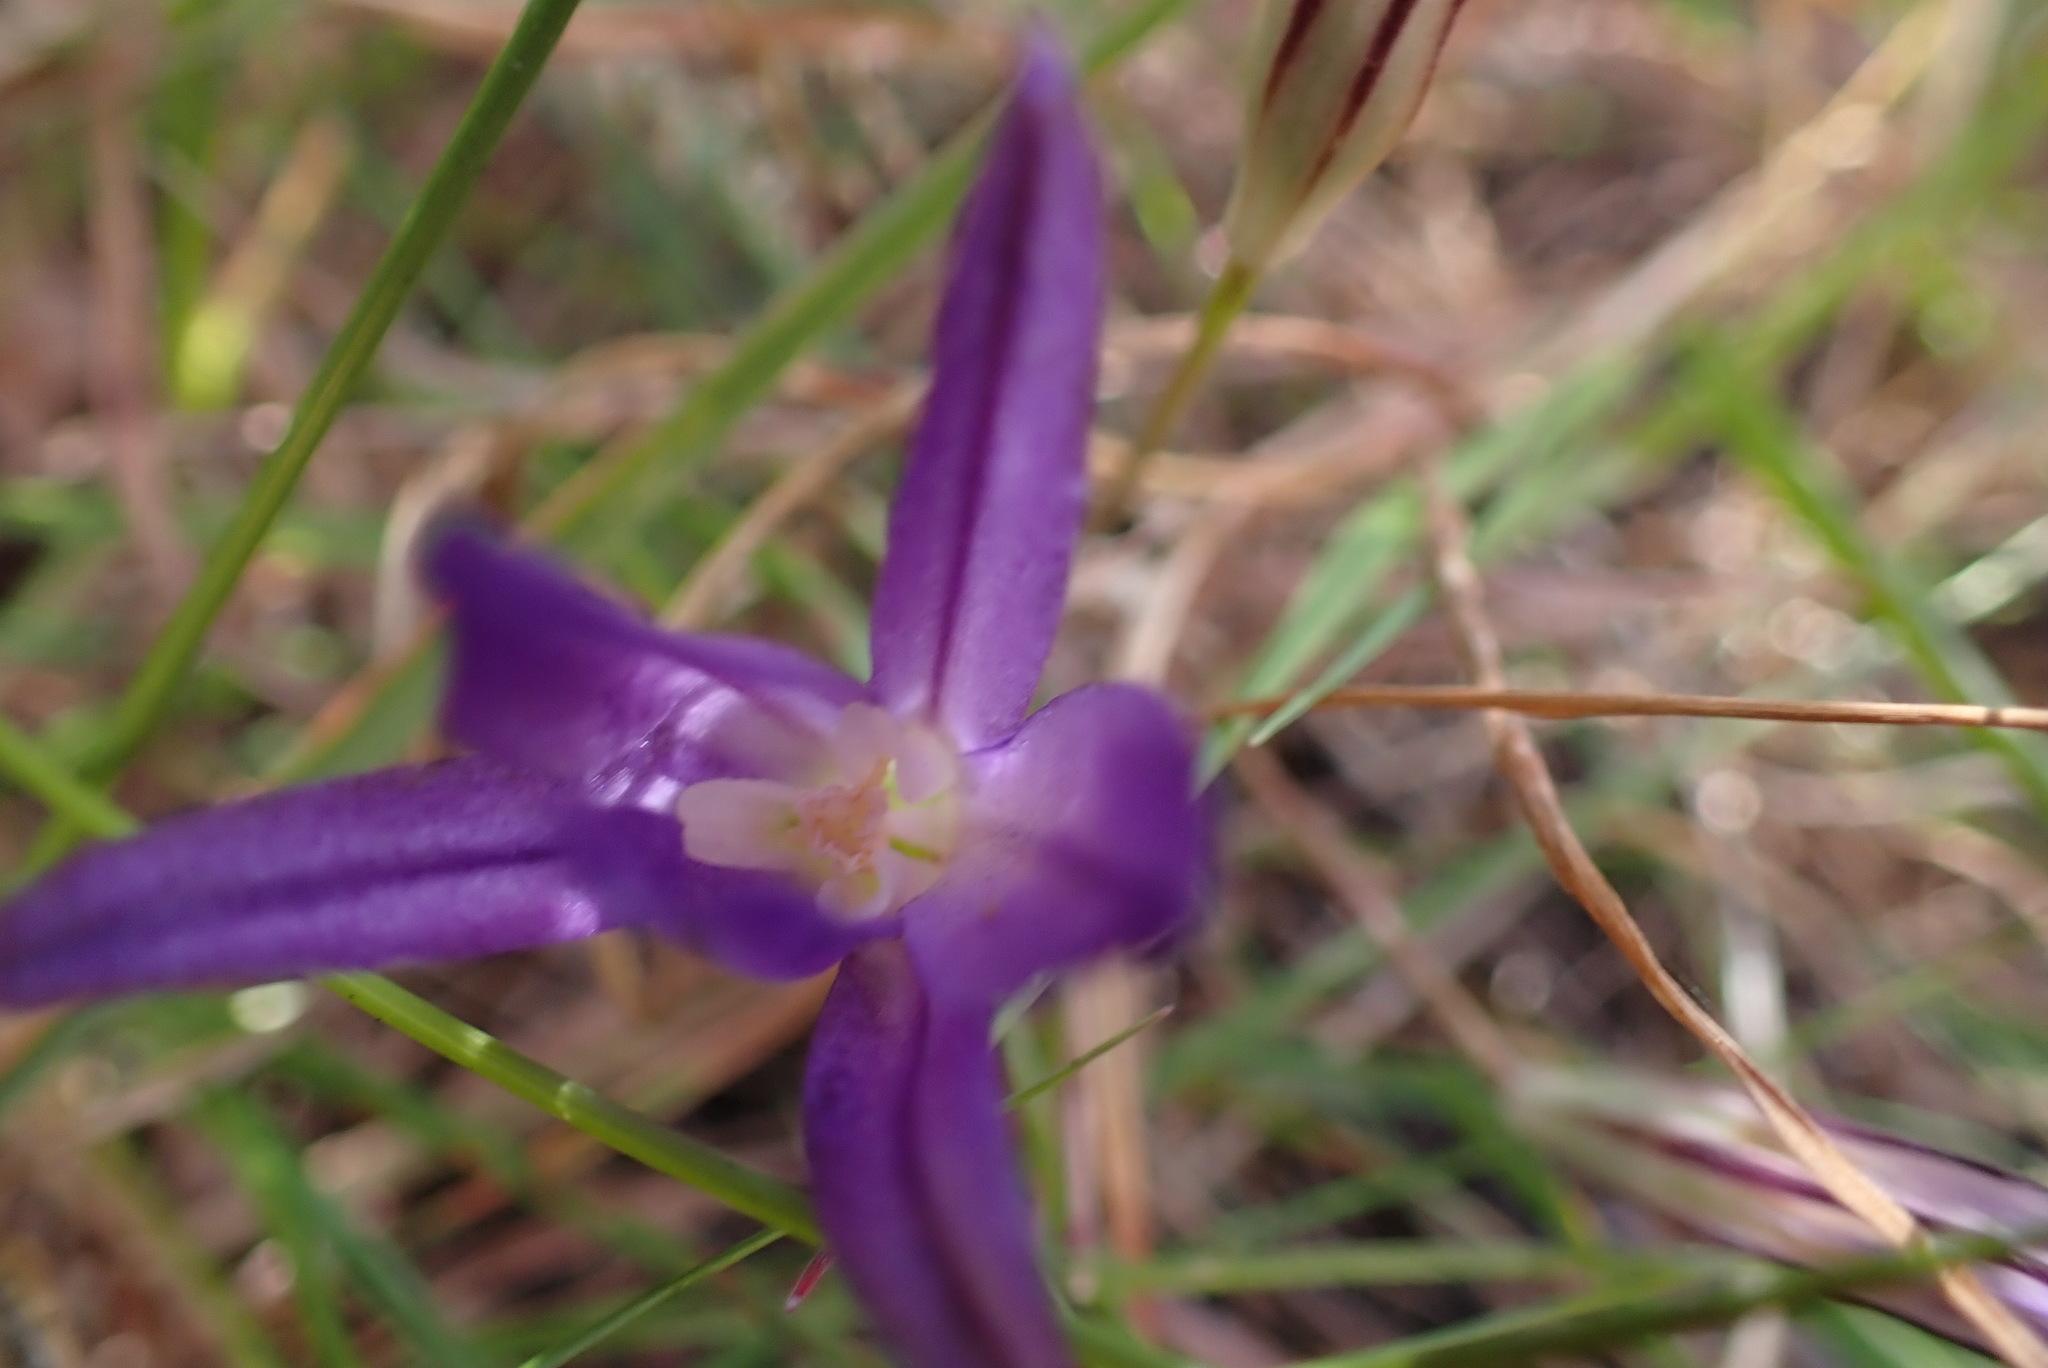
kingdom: Plantae
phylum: Tracheophyta
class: Liliopsida
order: Asparagales
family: Asparagaceae
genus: Brodiaea
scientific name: Brodiaea coronaria
